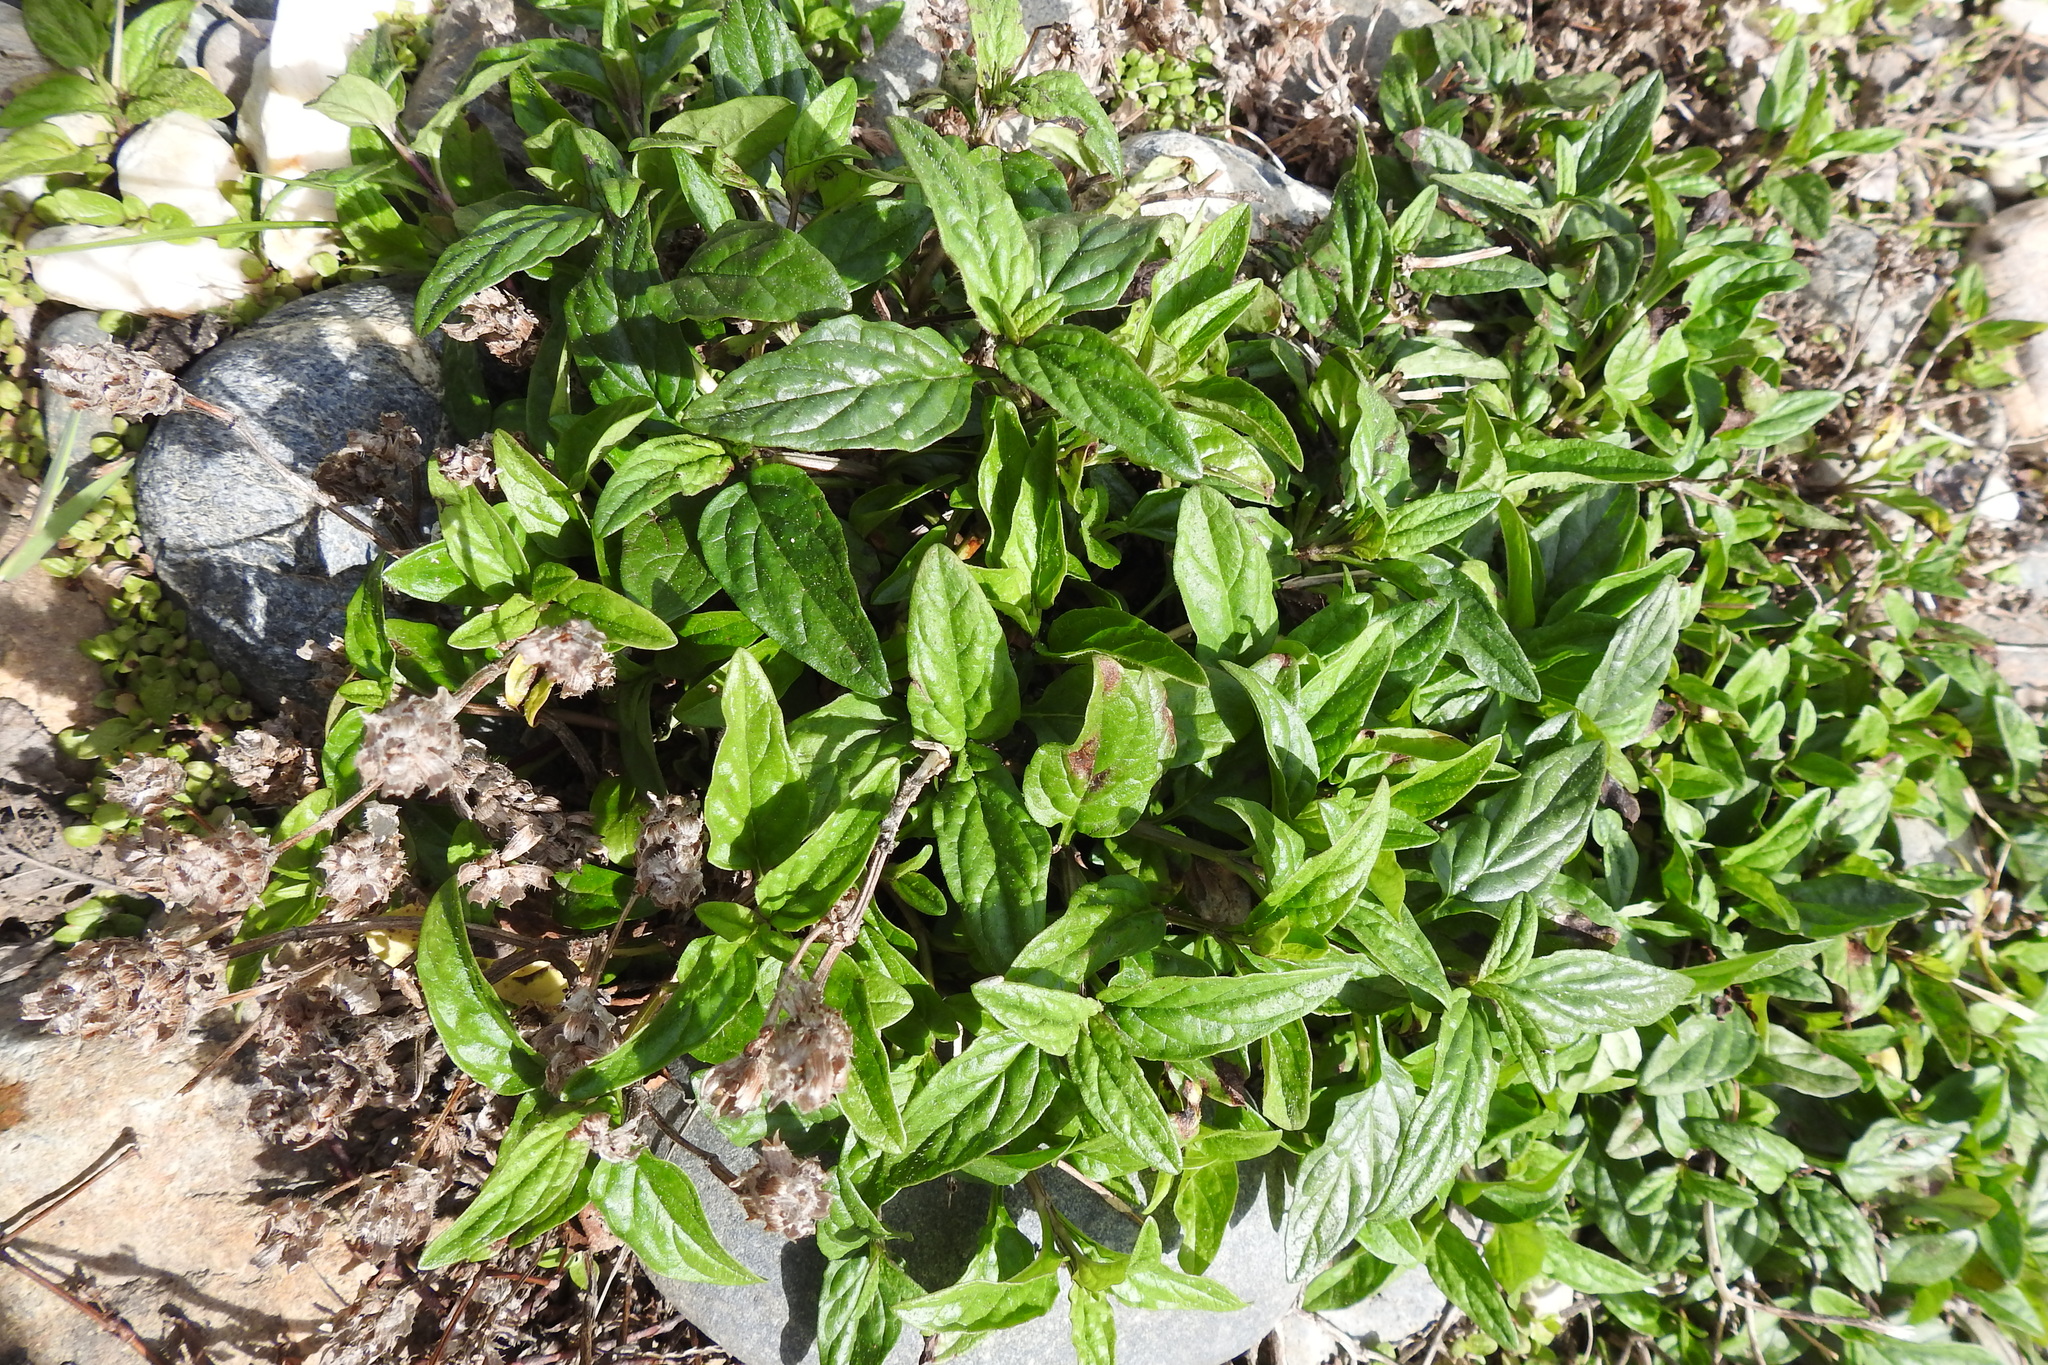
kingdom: Plantae
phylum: Tracheophyta
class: Magnoliopsida
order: Caryophyllales
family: Caryophyllaceae
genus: Saponaria
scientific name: Saponaria officinalis
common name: Soapwort
